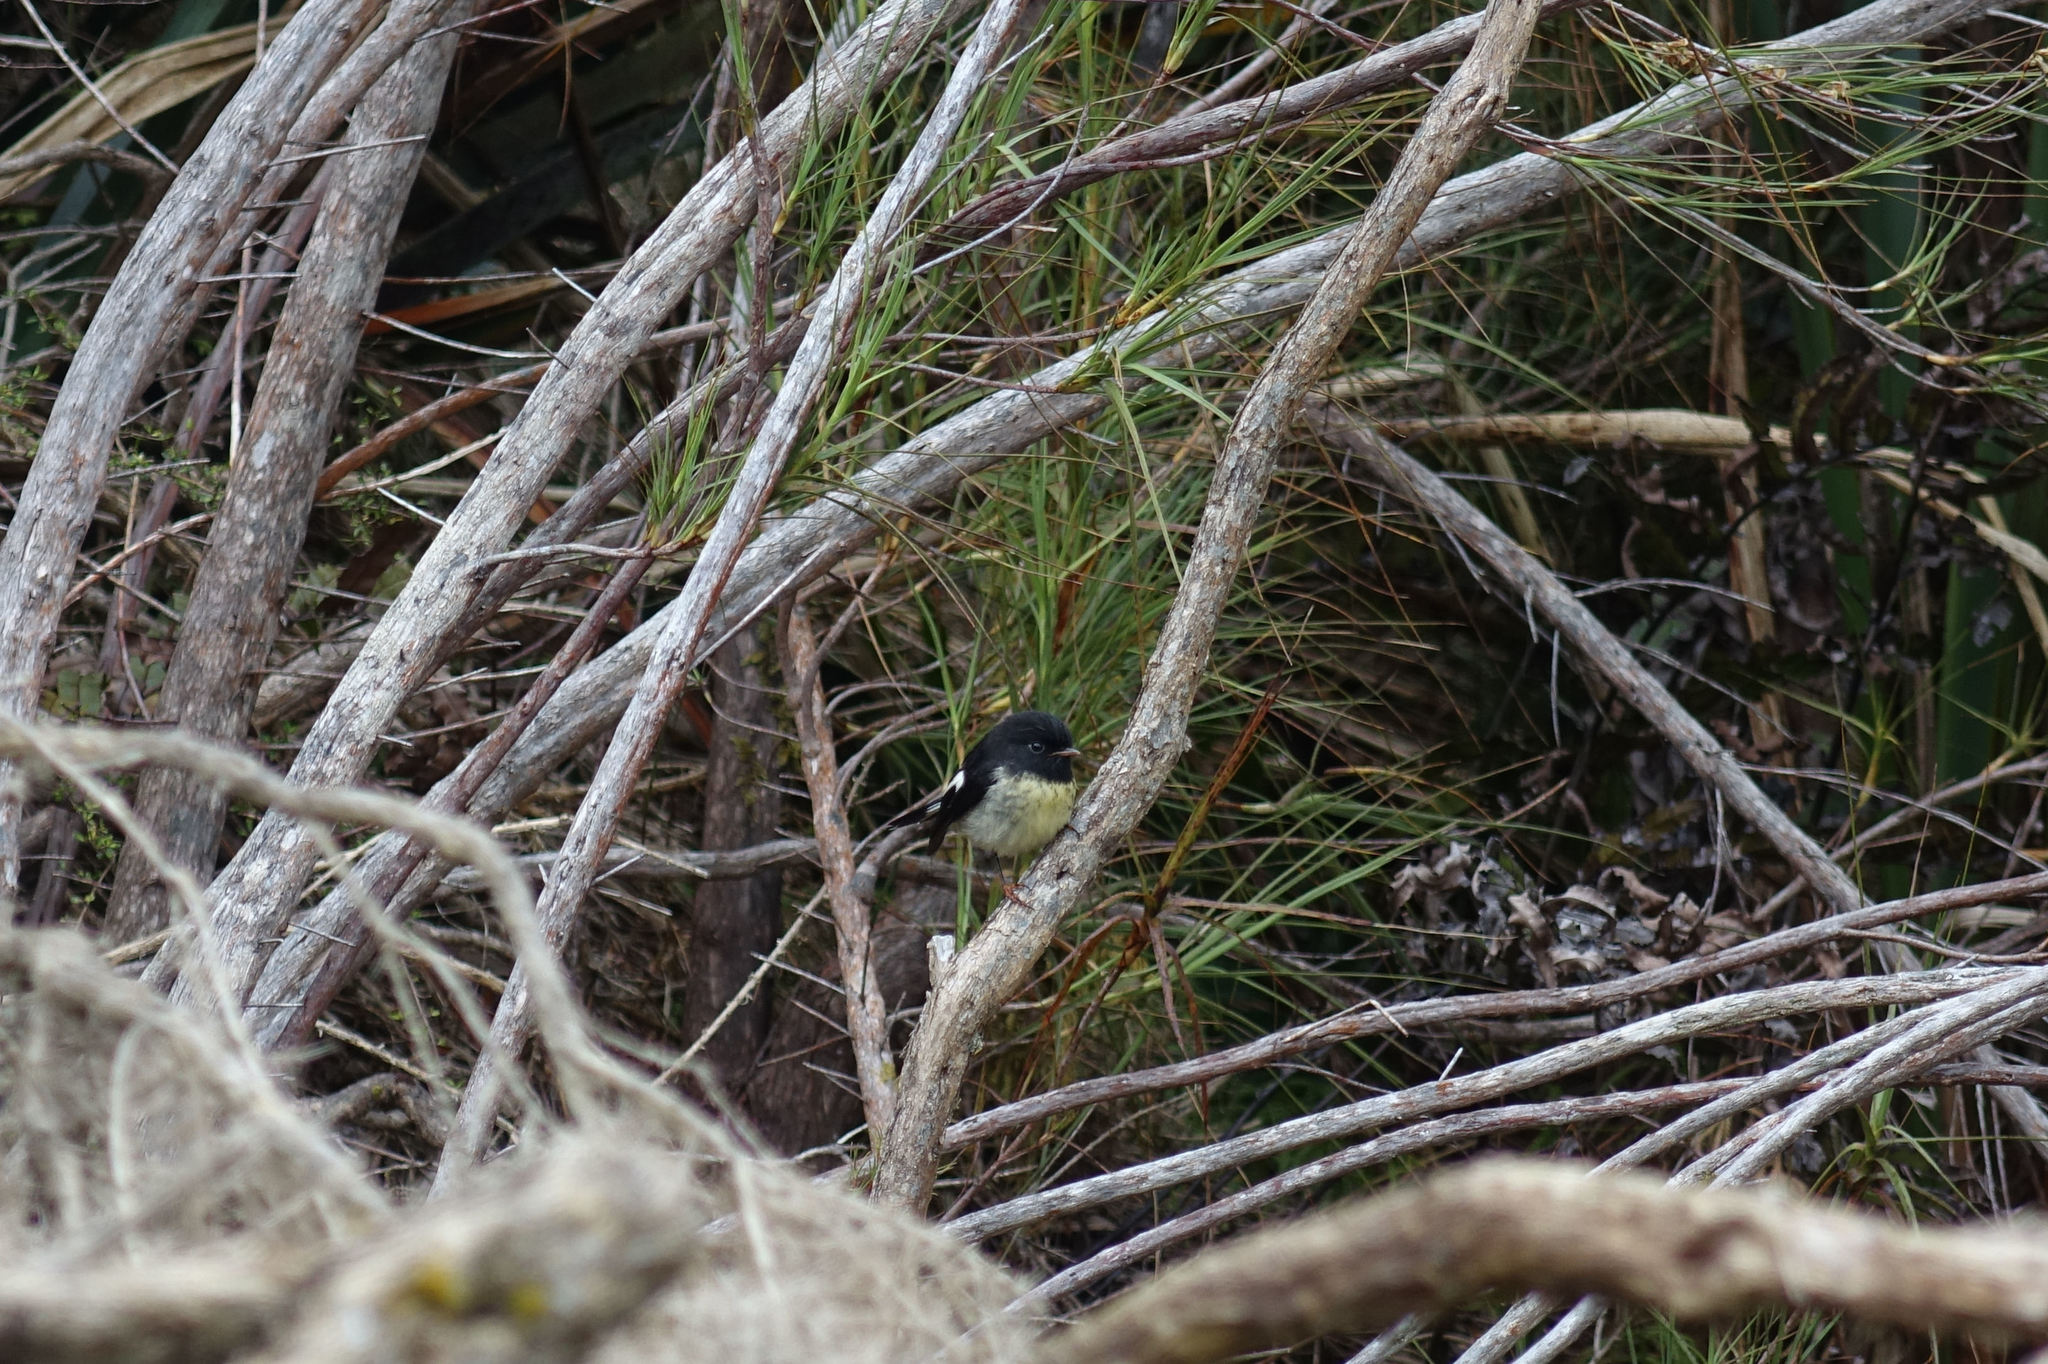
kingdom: Animalia
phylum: Chordata
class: Aves
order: Passeriformes
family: Petroicidae
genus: Petroica
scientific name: Petroica macrocephala
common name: Tomtit
